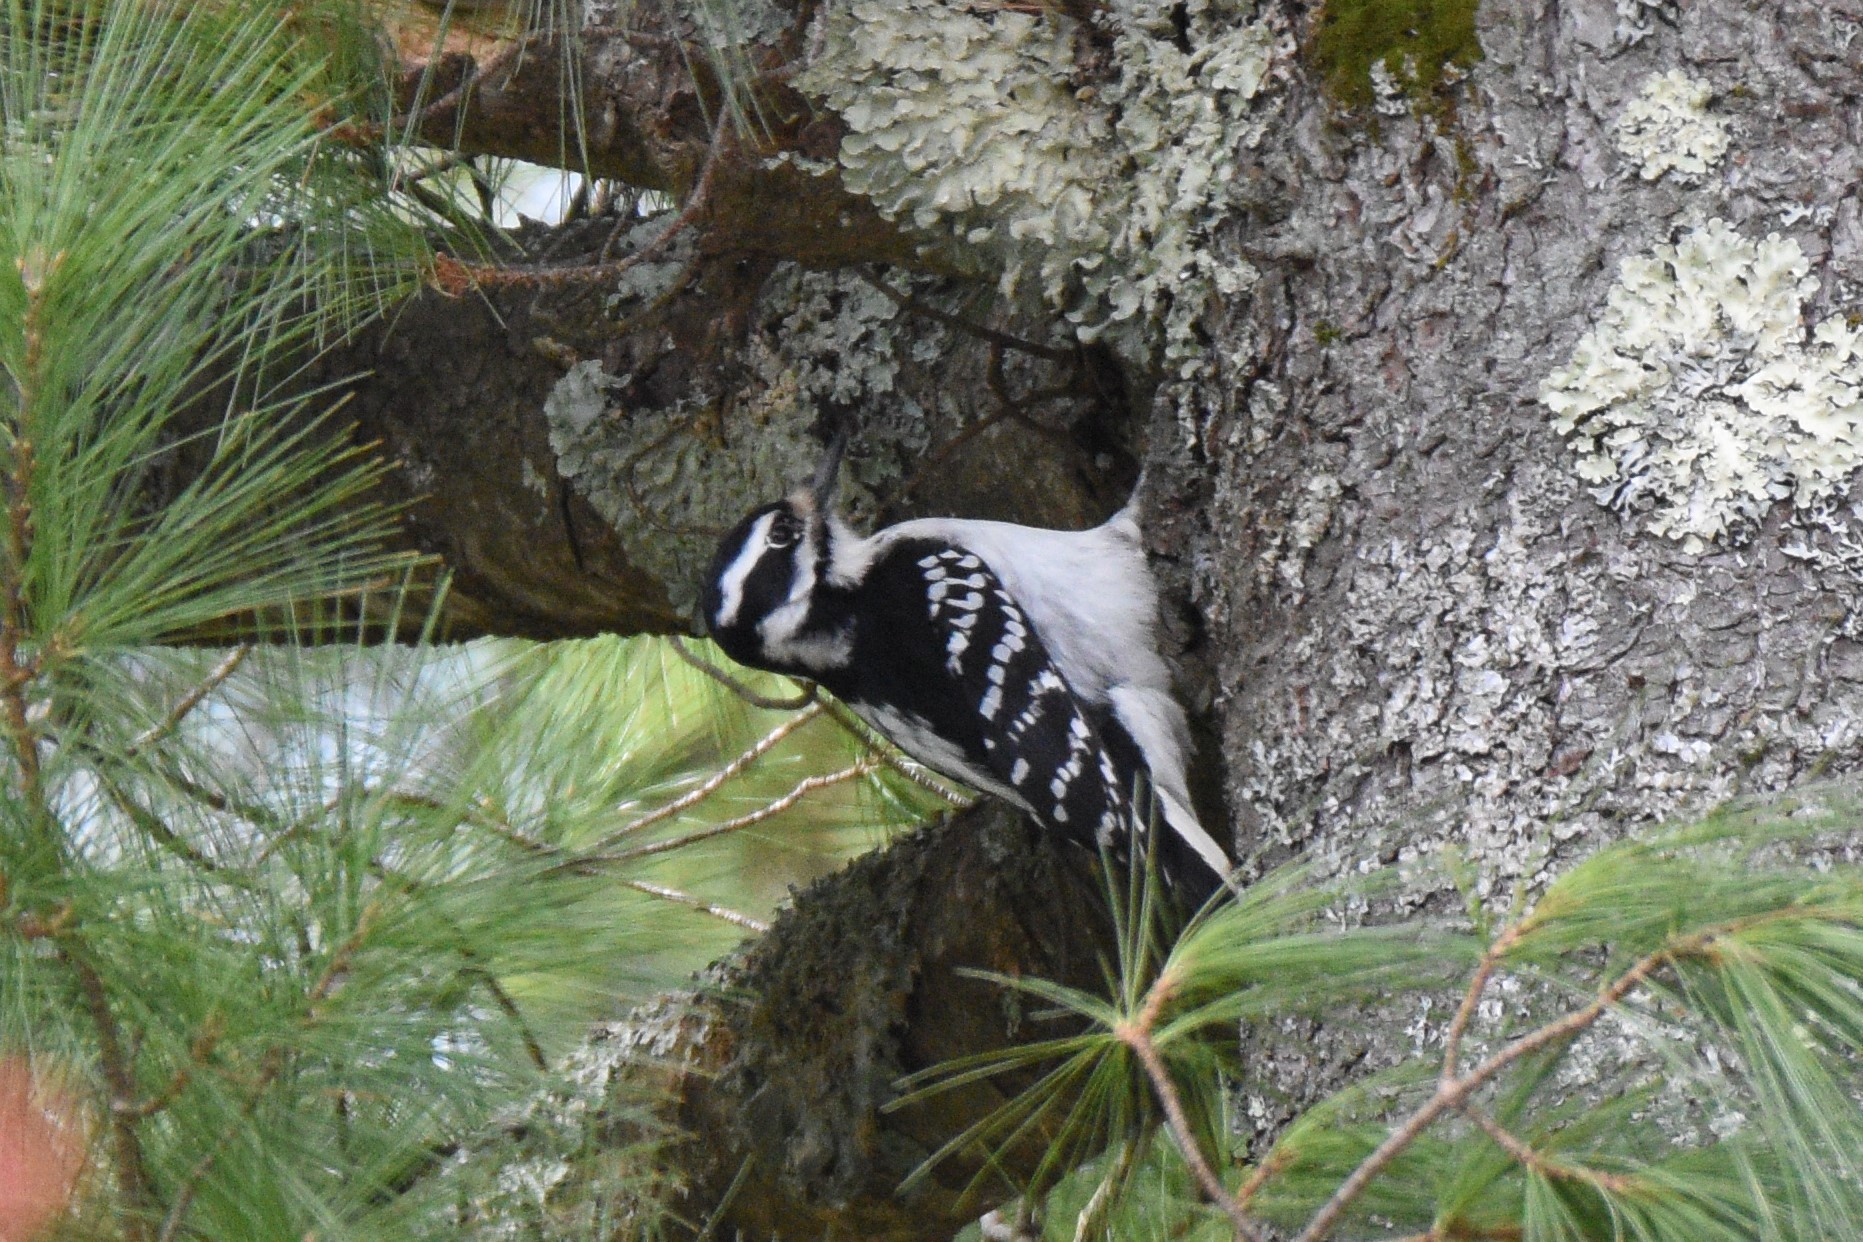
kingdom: Animalia
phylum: Chordata
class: Aves
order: Piciformes
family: Picidae
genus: Leuconotopicus
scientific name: Leuconotopicus villosus
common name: Hairy woodpecker
